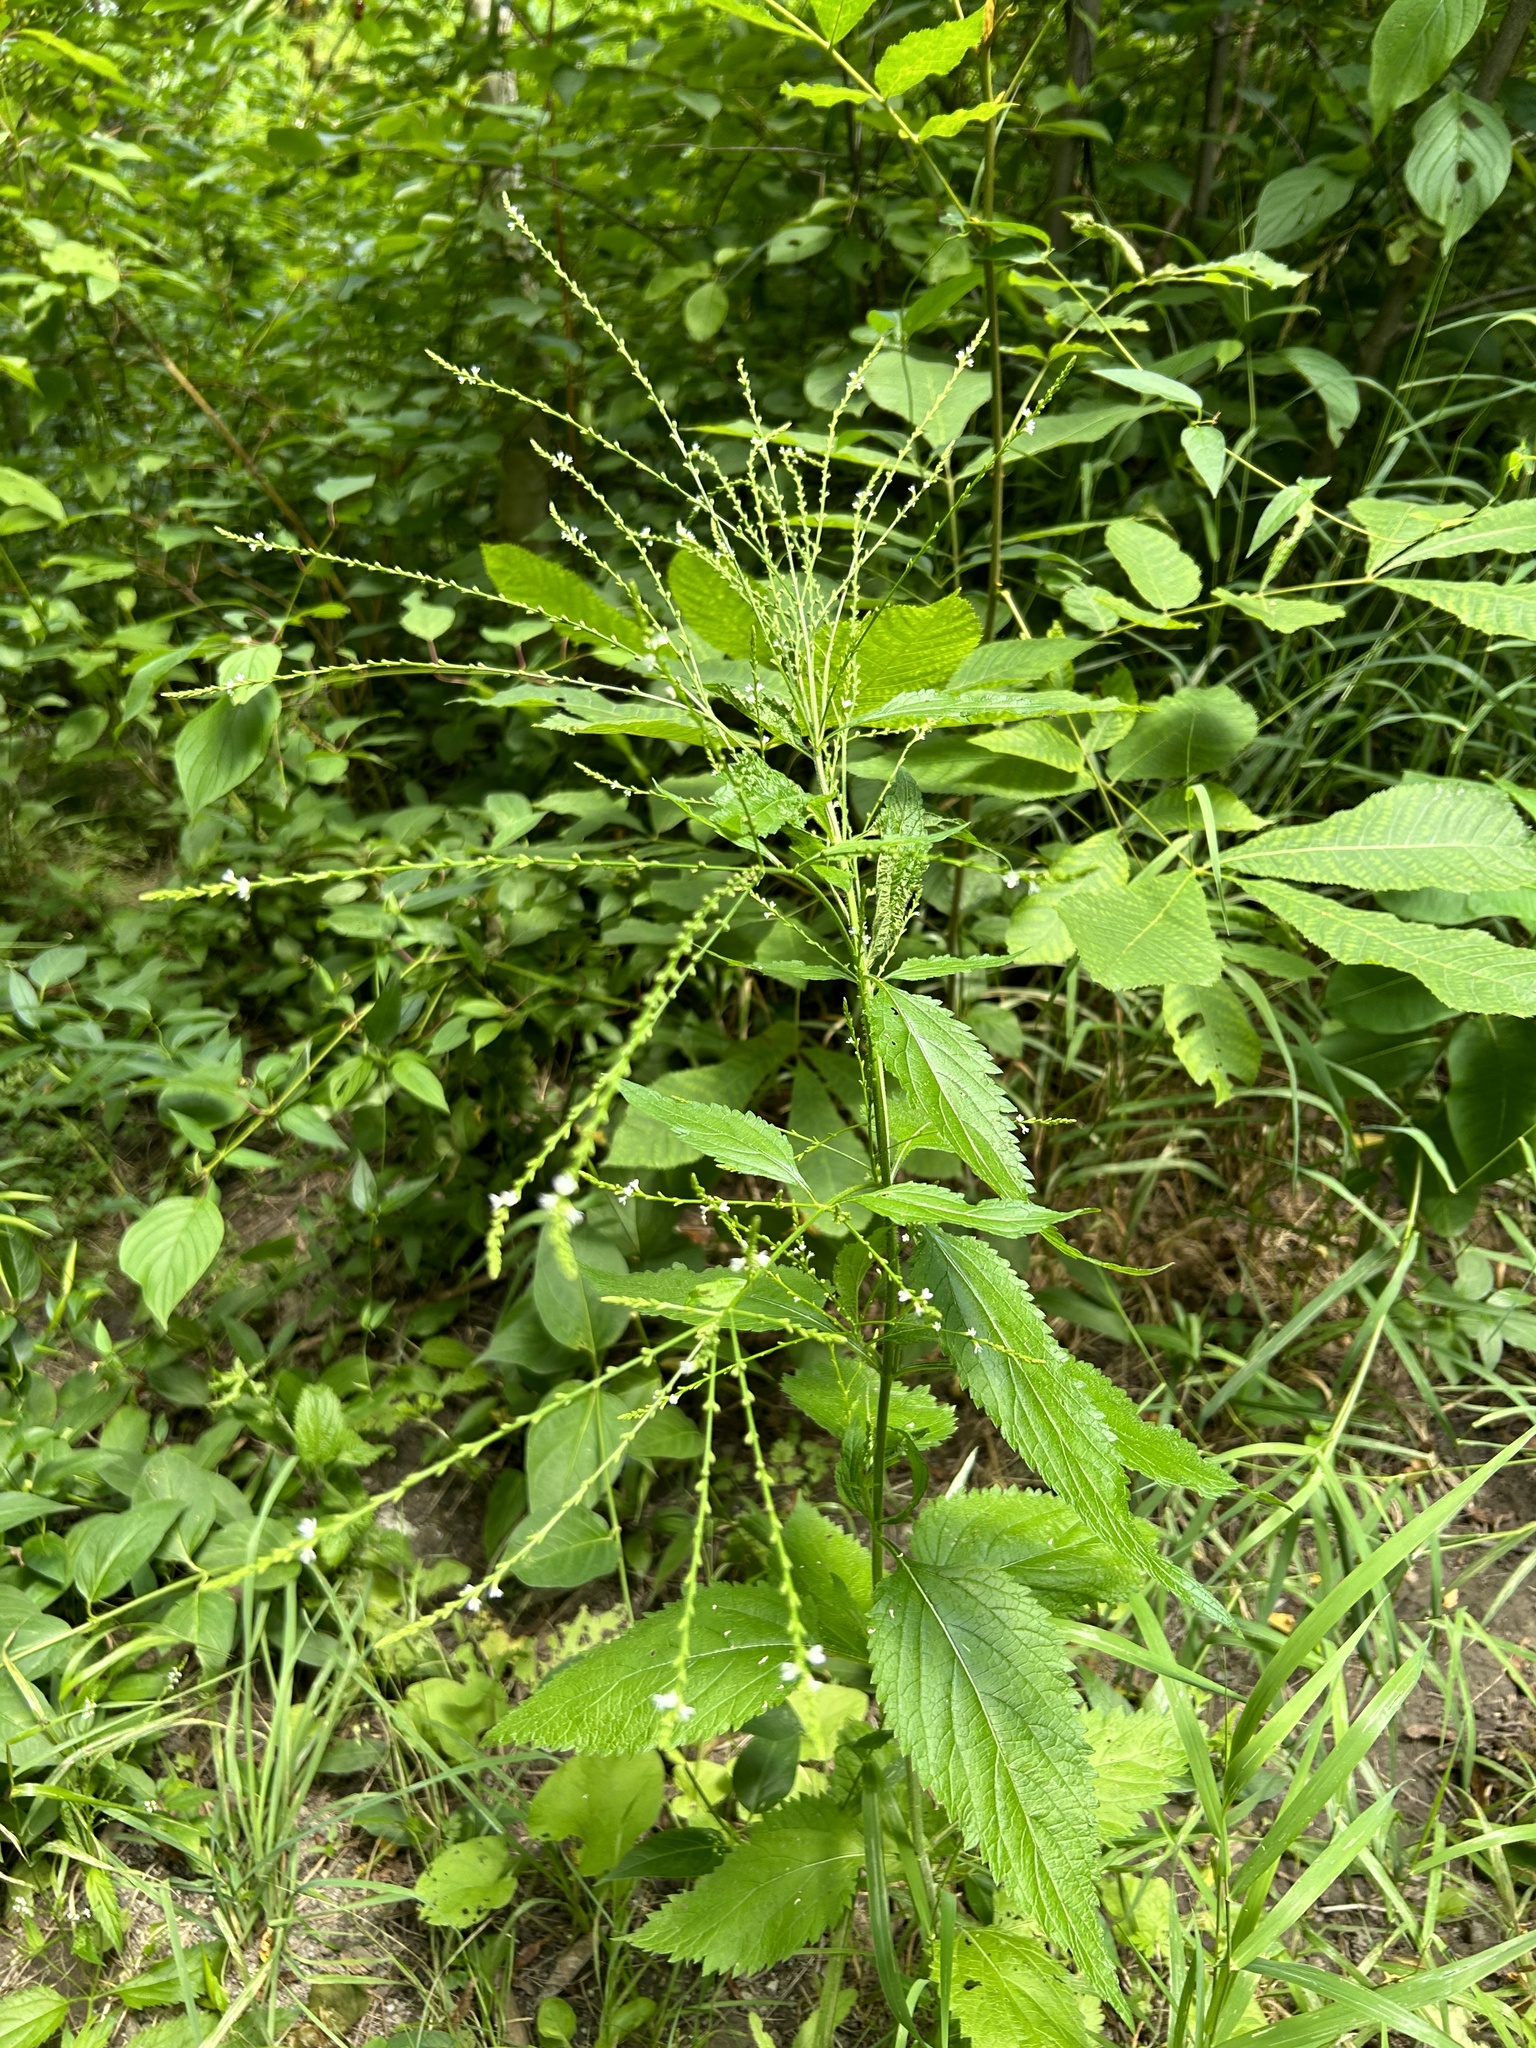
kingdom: Plantae
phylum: Tracheophyta
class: Magnoliopsida
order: Lamiales
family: Verbenaceae
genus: Verbena
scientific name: Verbena urticifolia
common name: Nettle-leaved vervain
